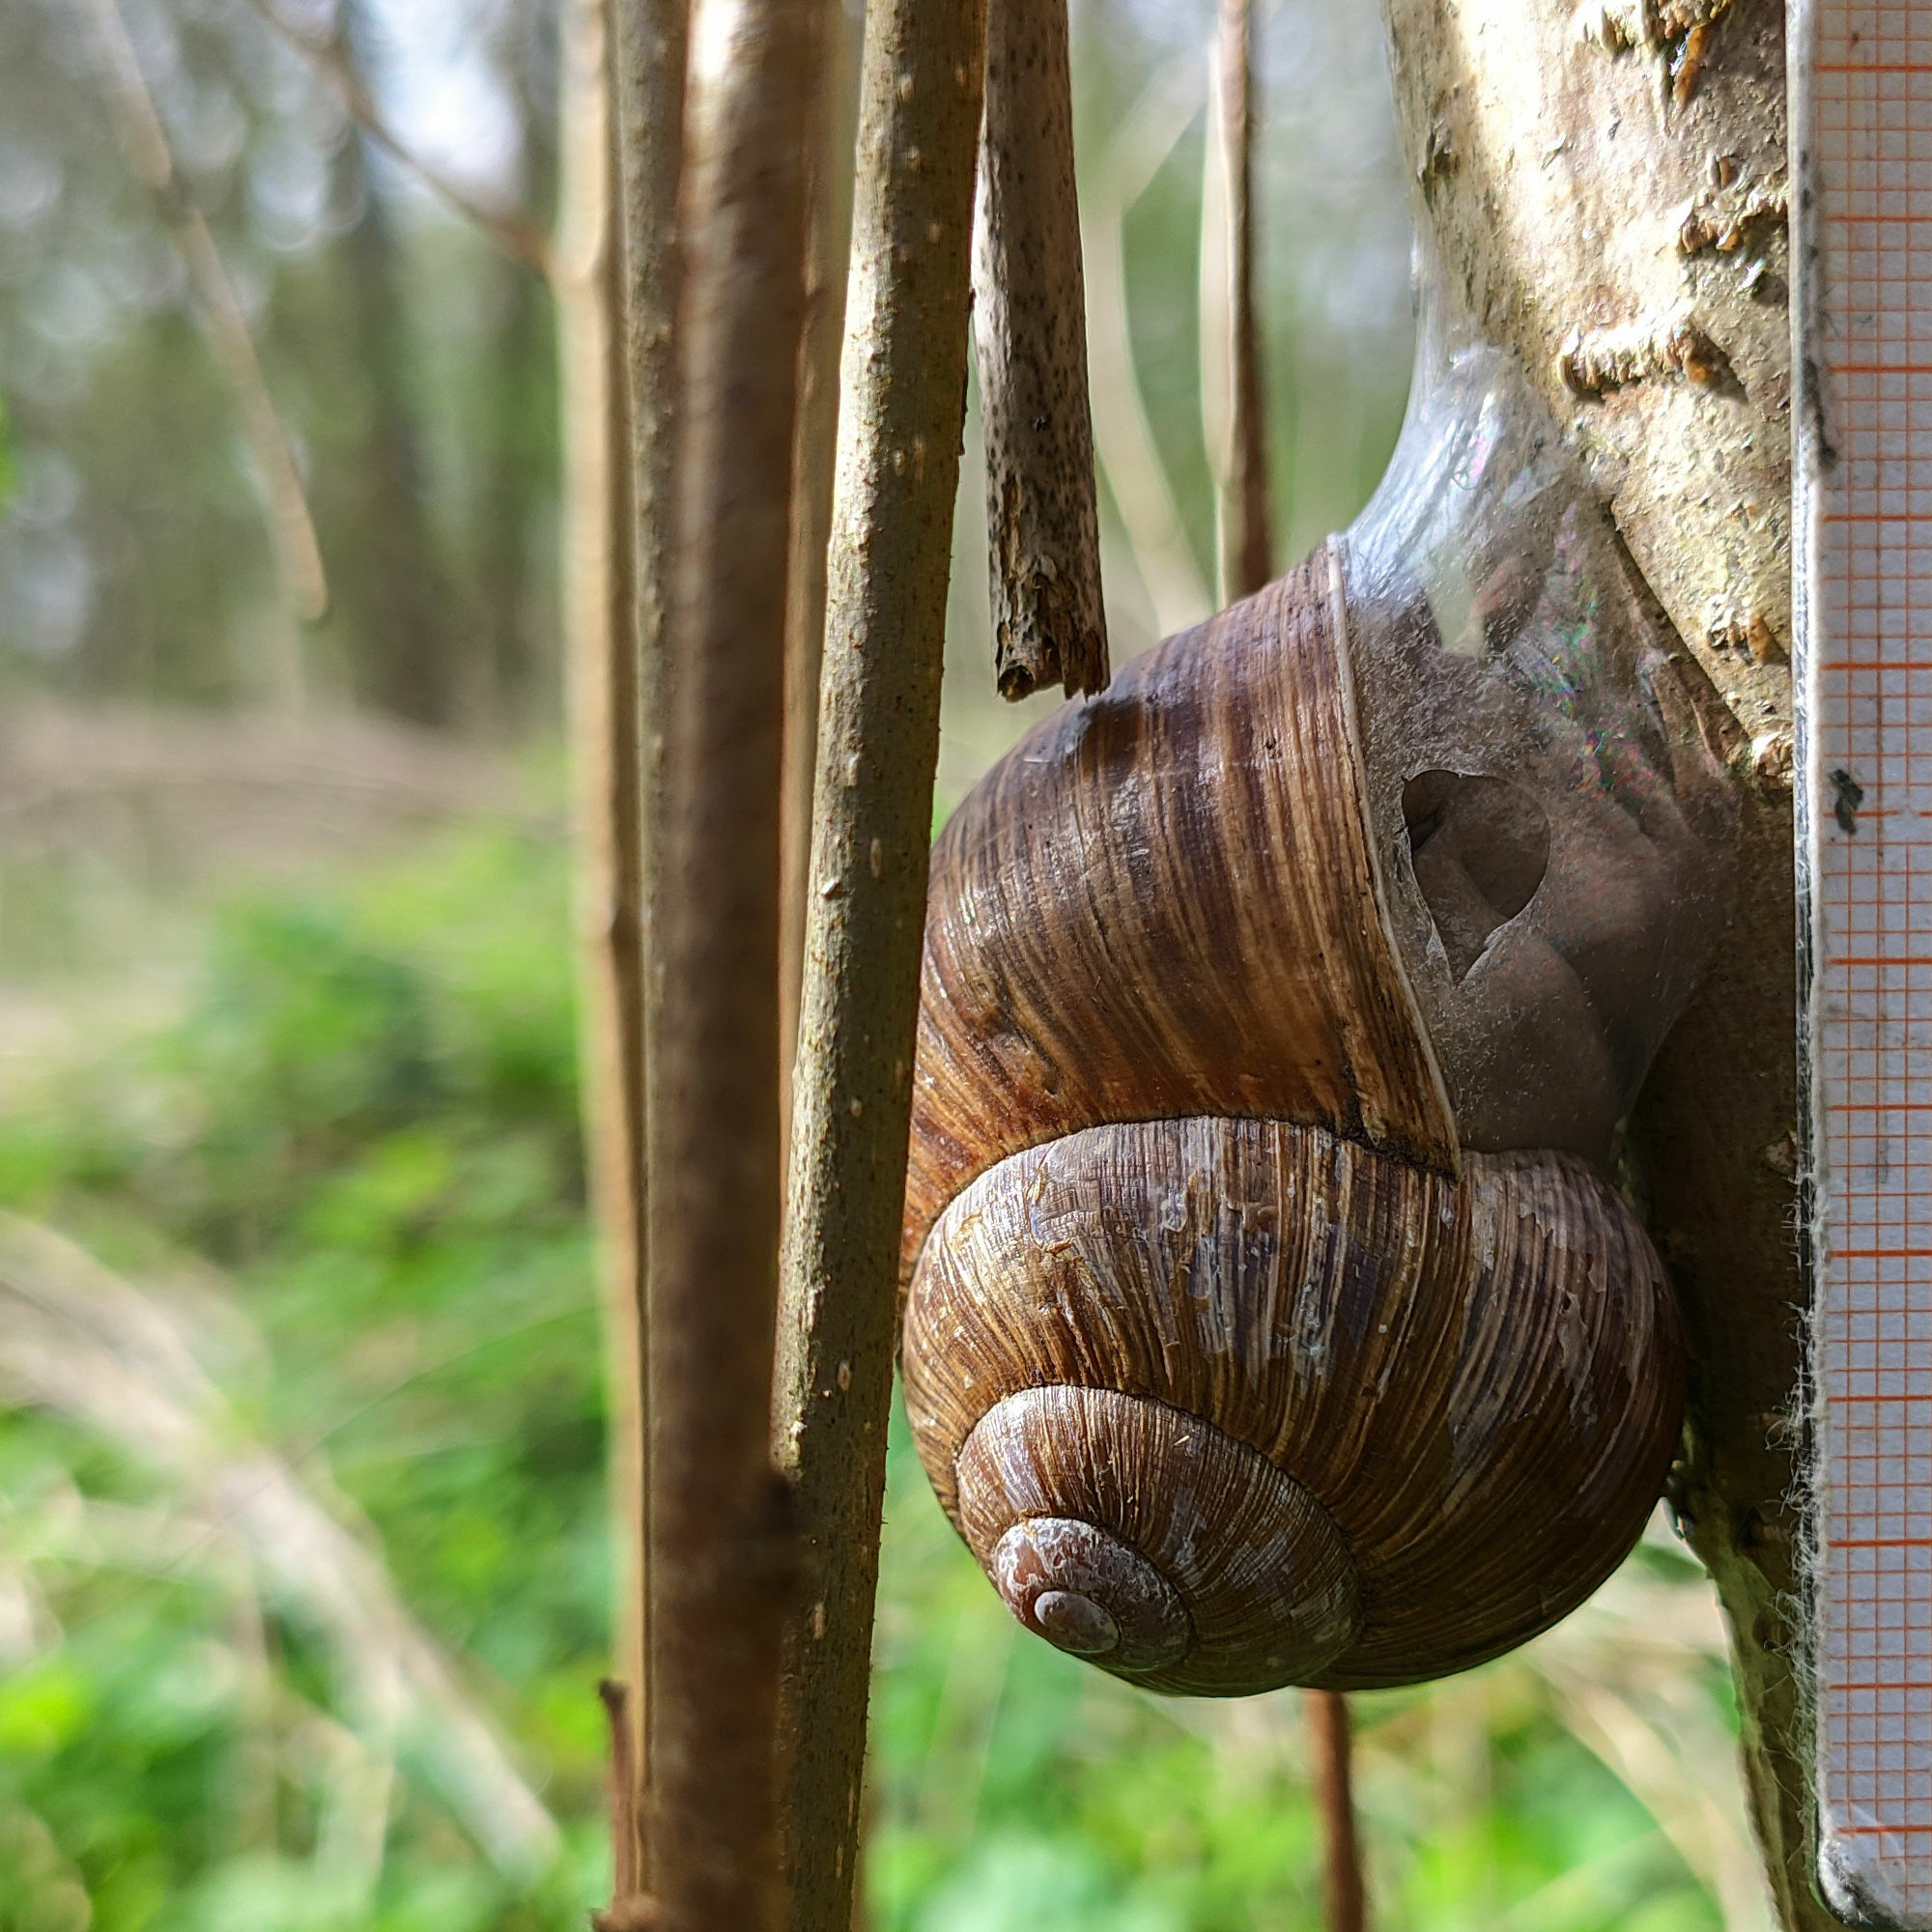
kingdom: Animalia
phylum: Mollusca
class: Gastropoda
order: Stylommatophora
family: Helicidae
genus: Helix
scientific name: Helix pomatia
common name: Roman snail
